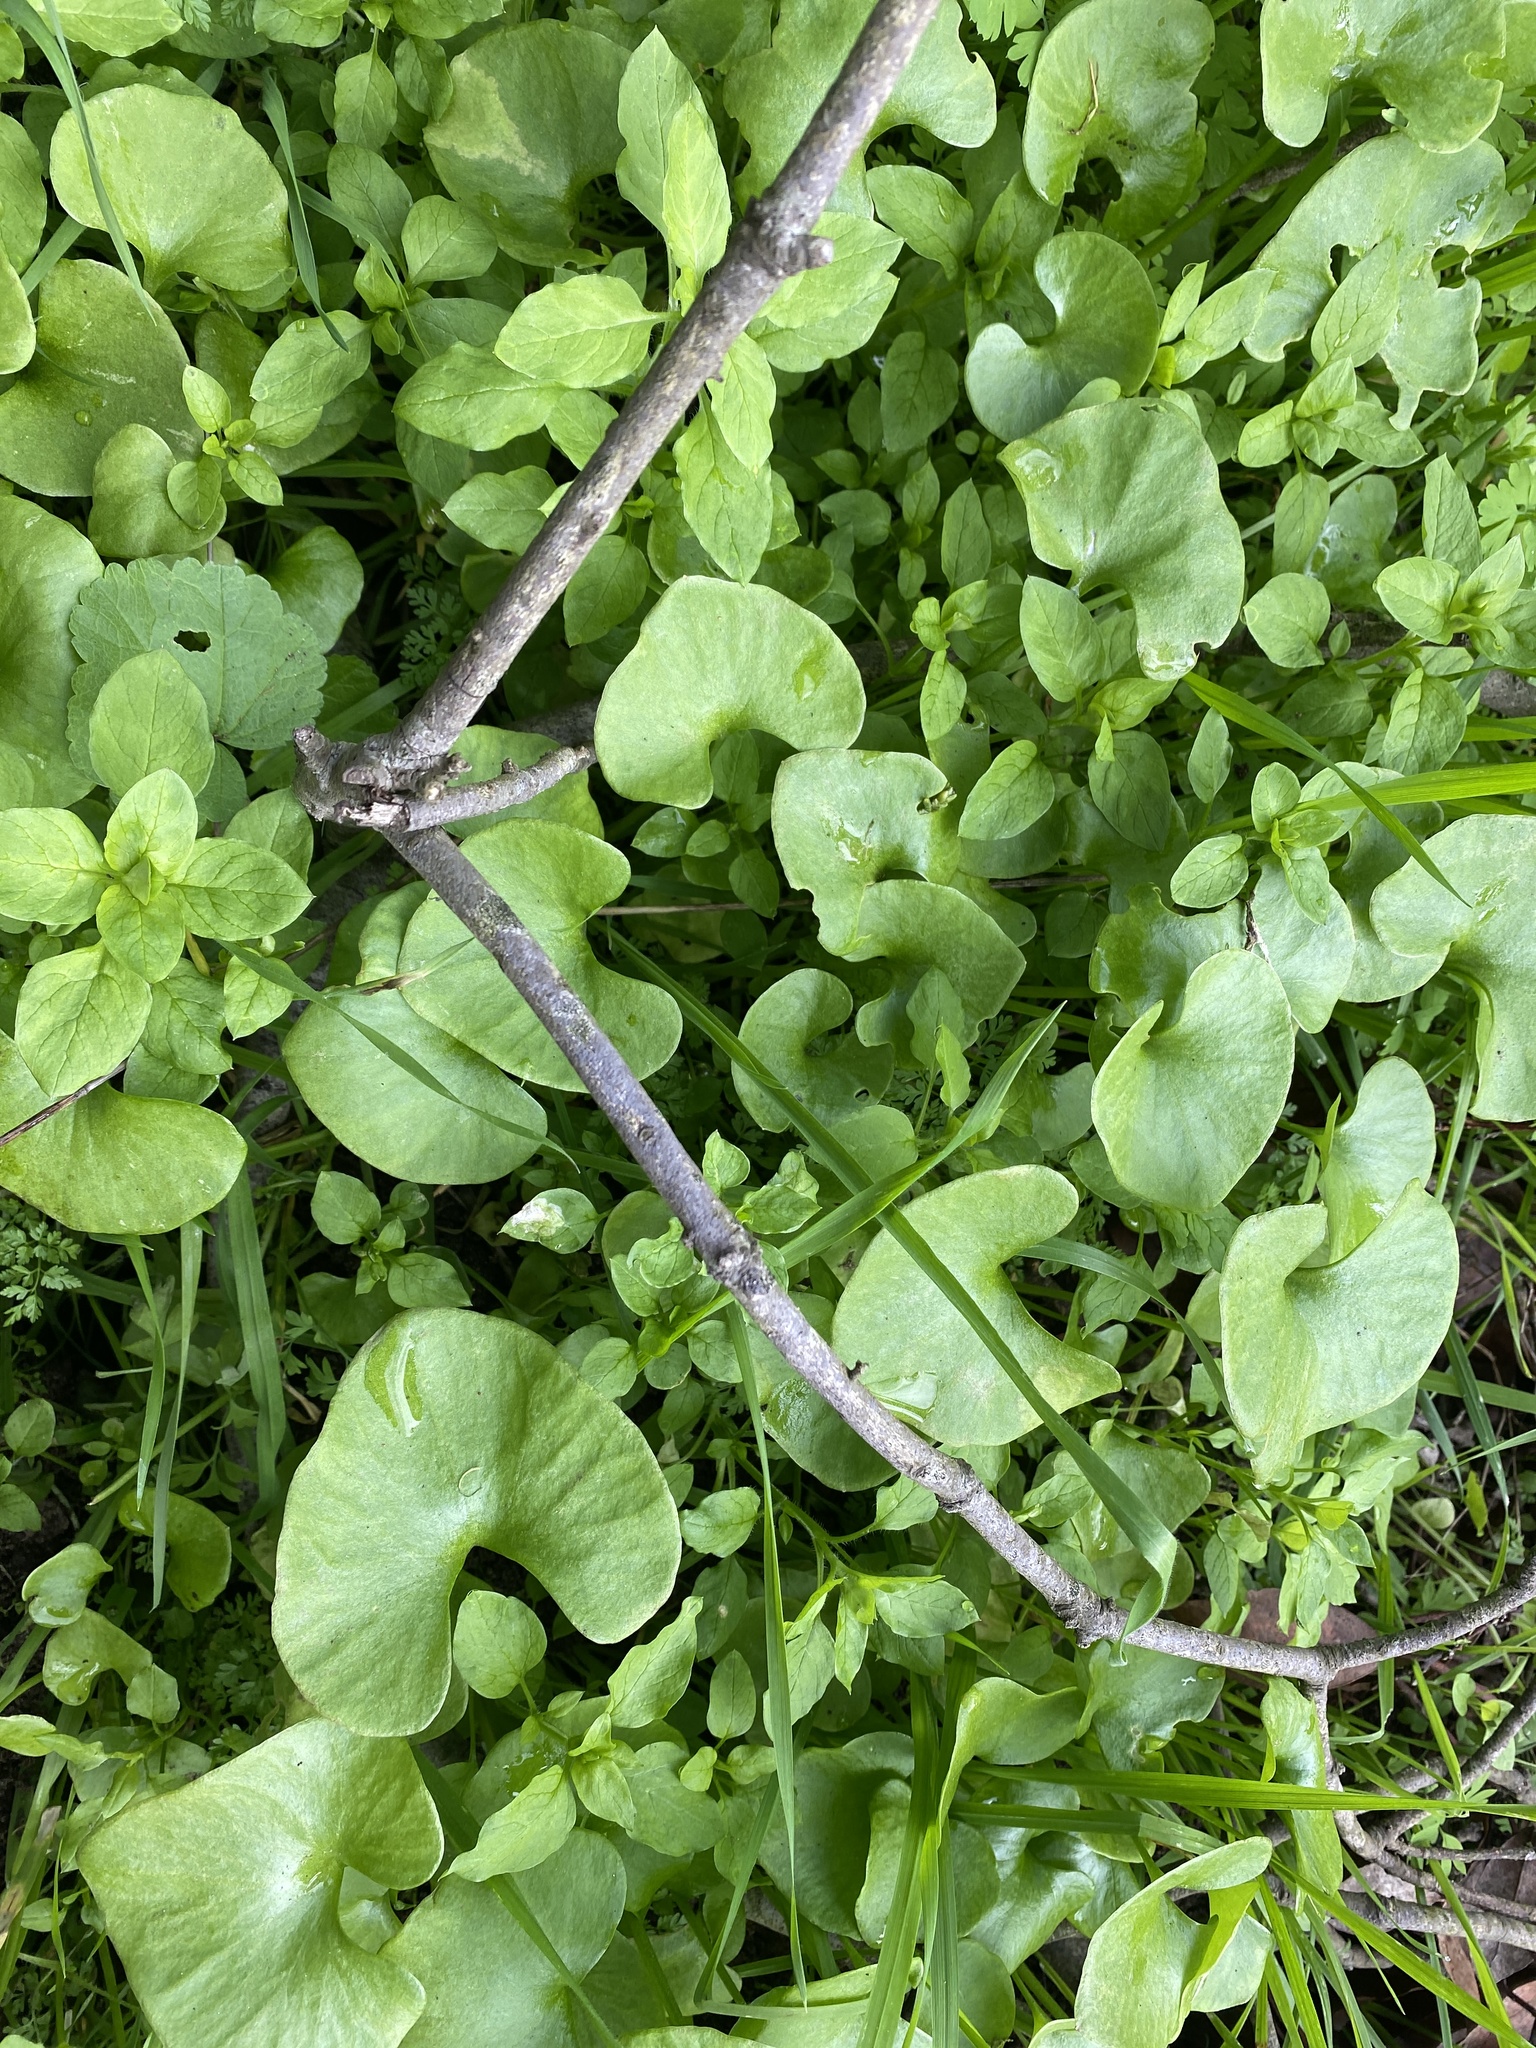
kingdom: Plantae
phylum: Tracheophyta
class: Magnoliopsida
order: Caryophyllales
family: Montiaceae
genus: Claytonia
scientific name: Claytonia perfoliata
